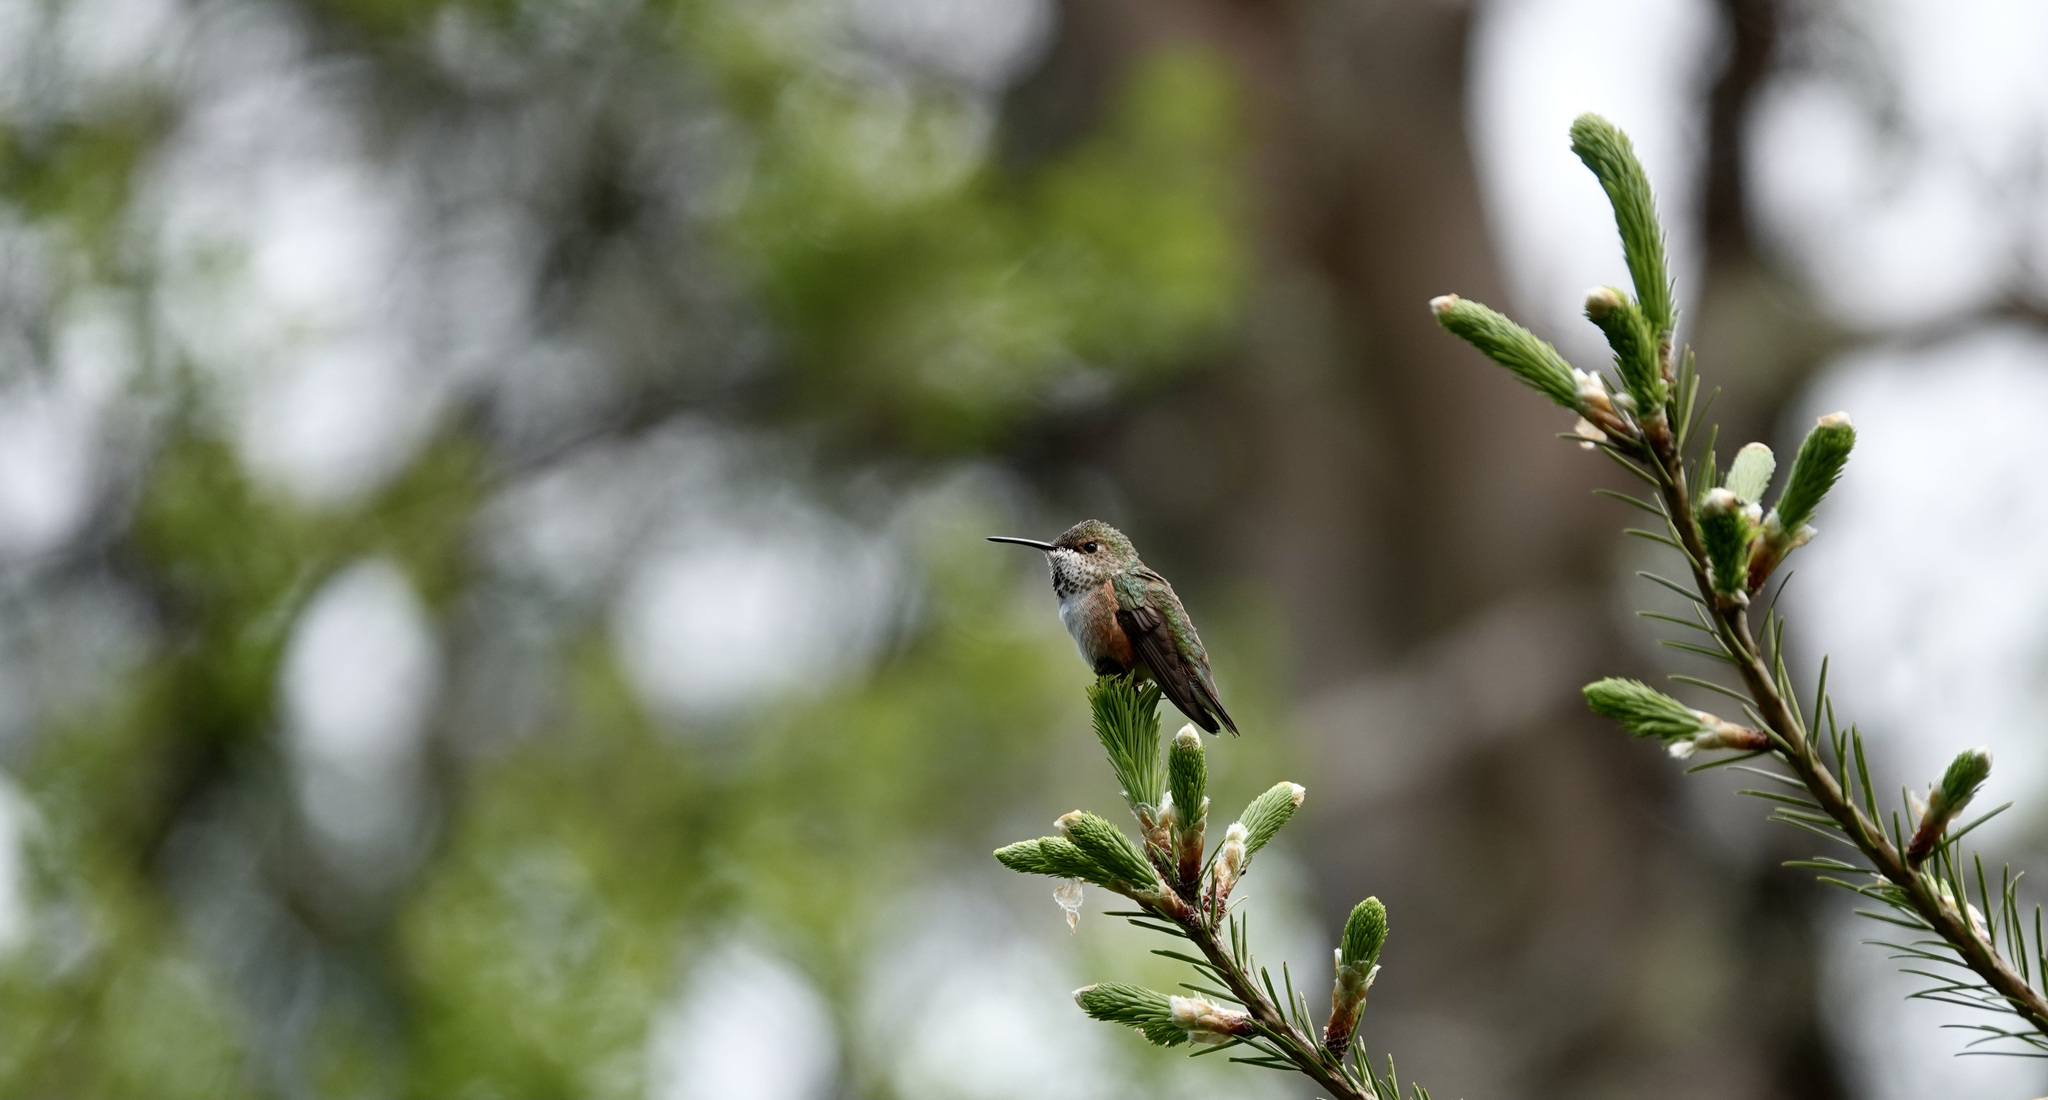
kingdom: Animalia
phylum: Chordata
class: Aves
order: Apodiformes
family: Trochilidae
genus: Selasphorus
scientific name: Selasphorus rufus
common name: Rufous hummingbird
